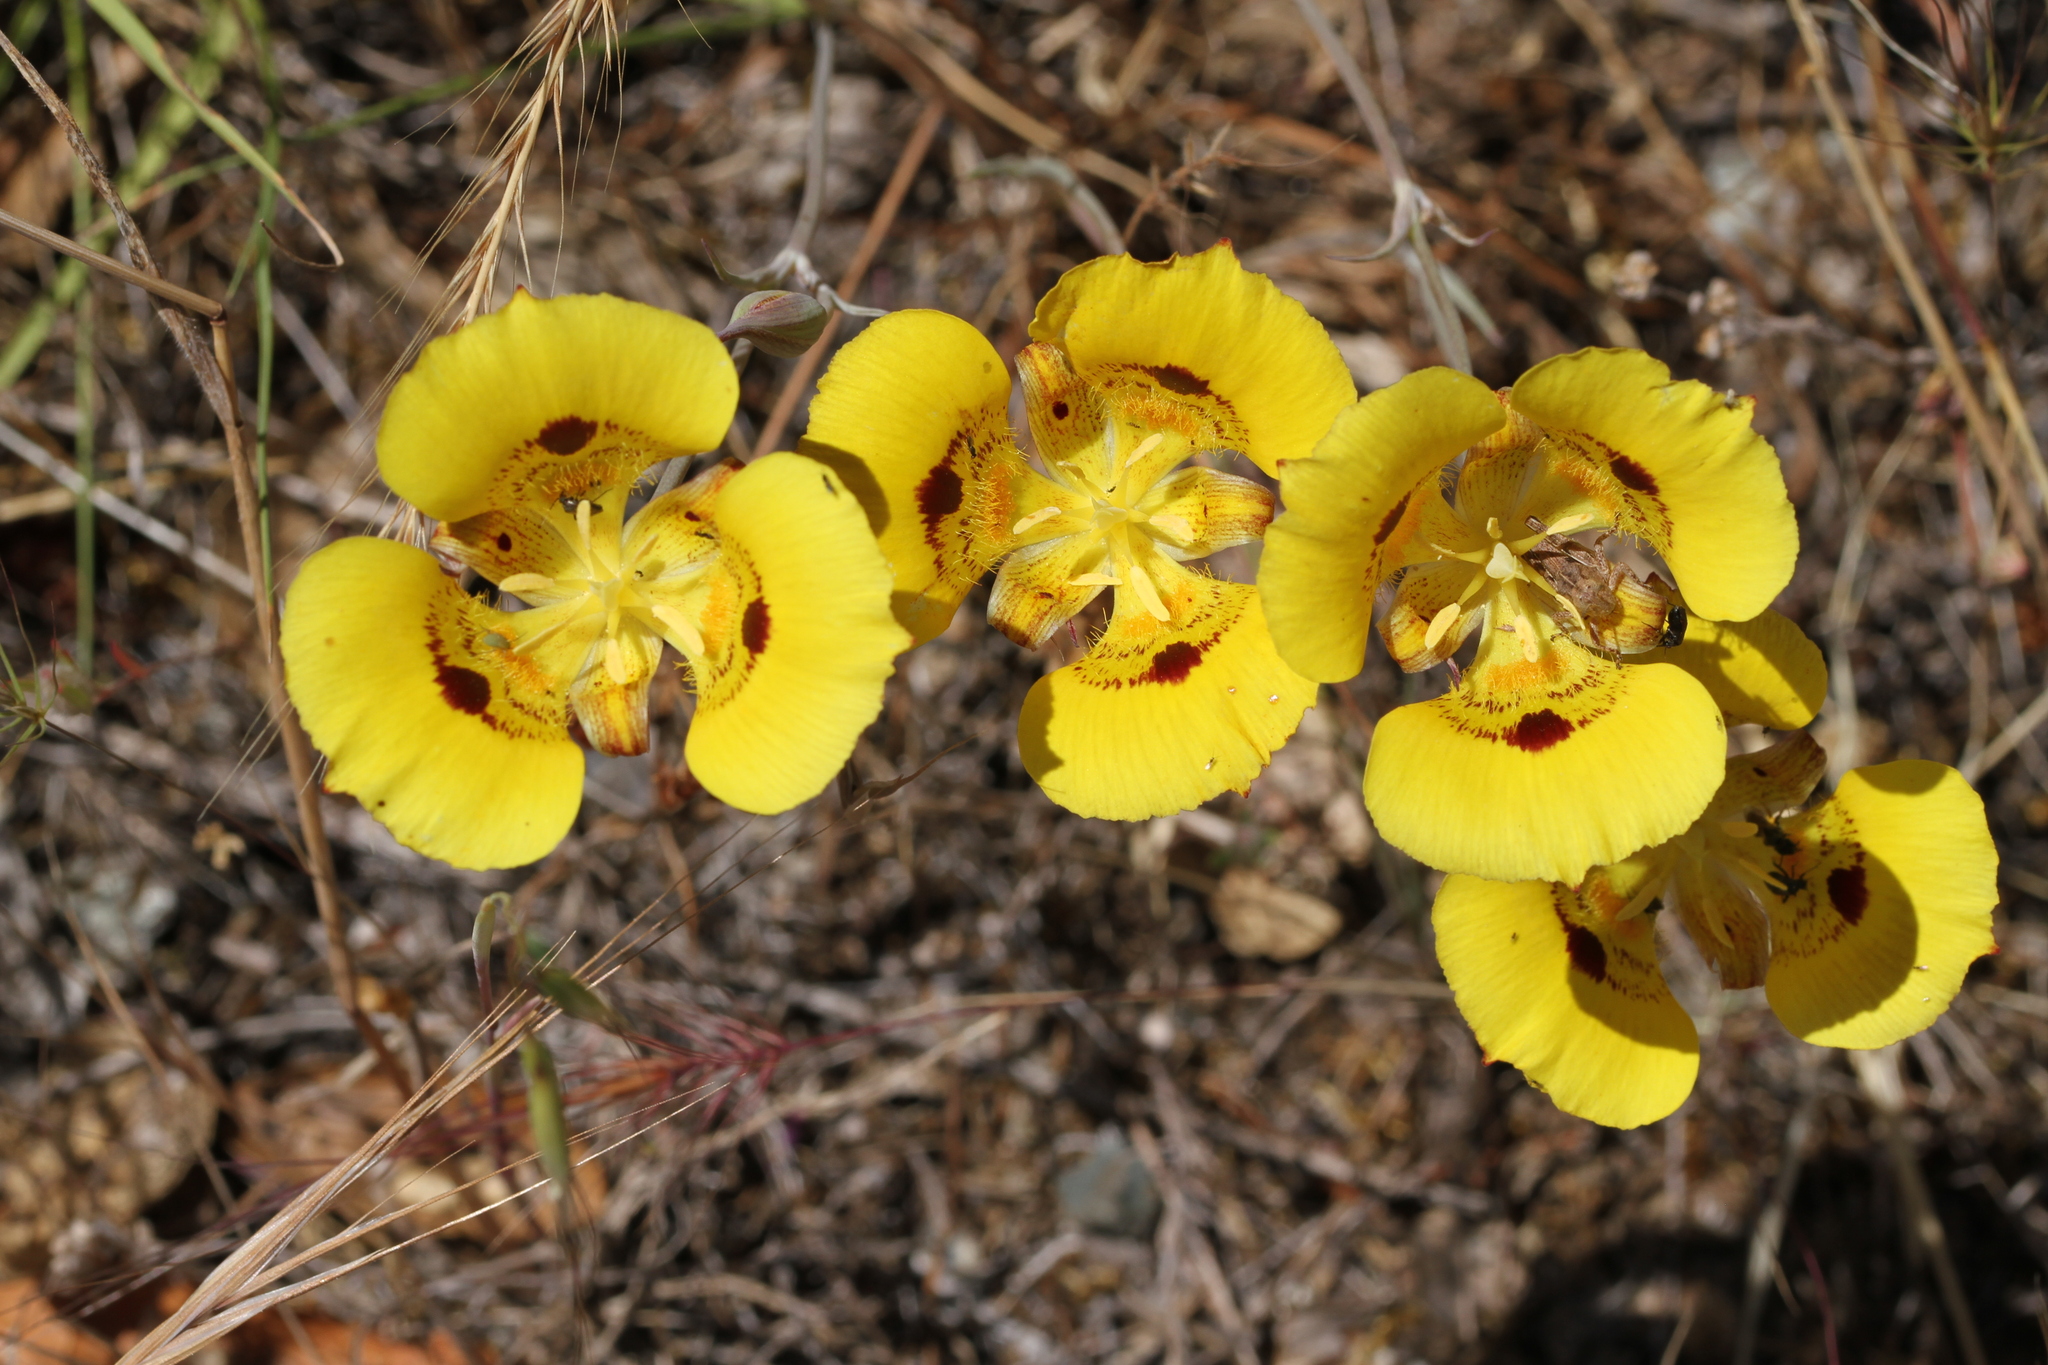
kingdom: Plantae
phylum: Tracheophyta
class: Liliopsida
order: Liliales
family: Liliaceae
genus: Calochortus
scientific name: Calochortus luteus
